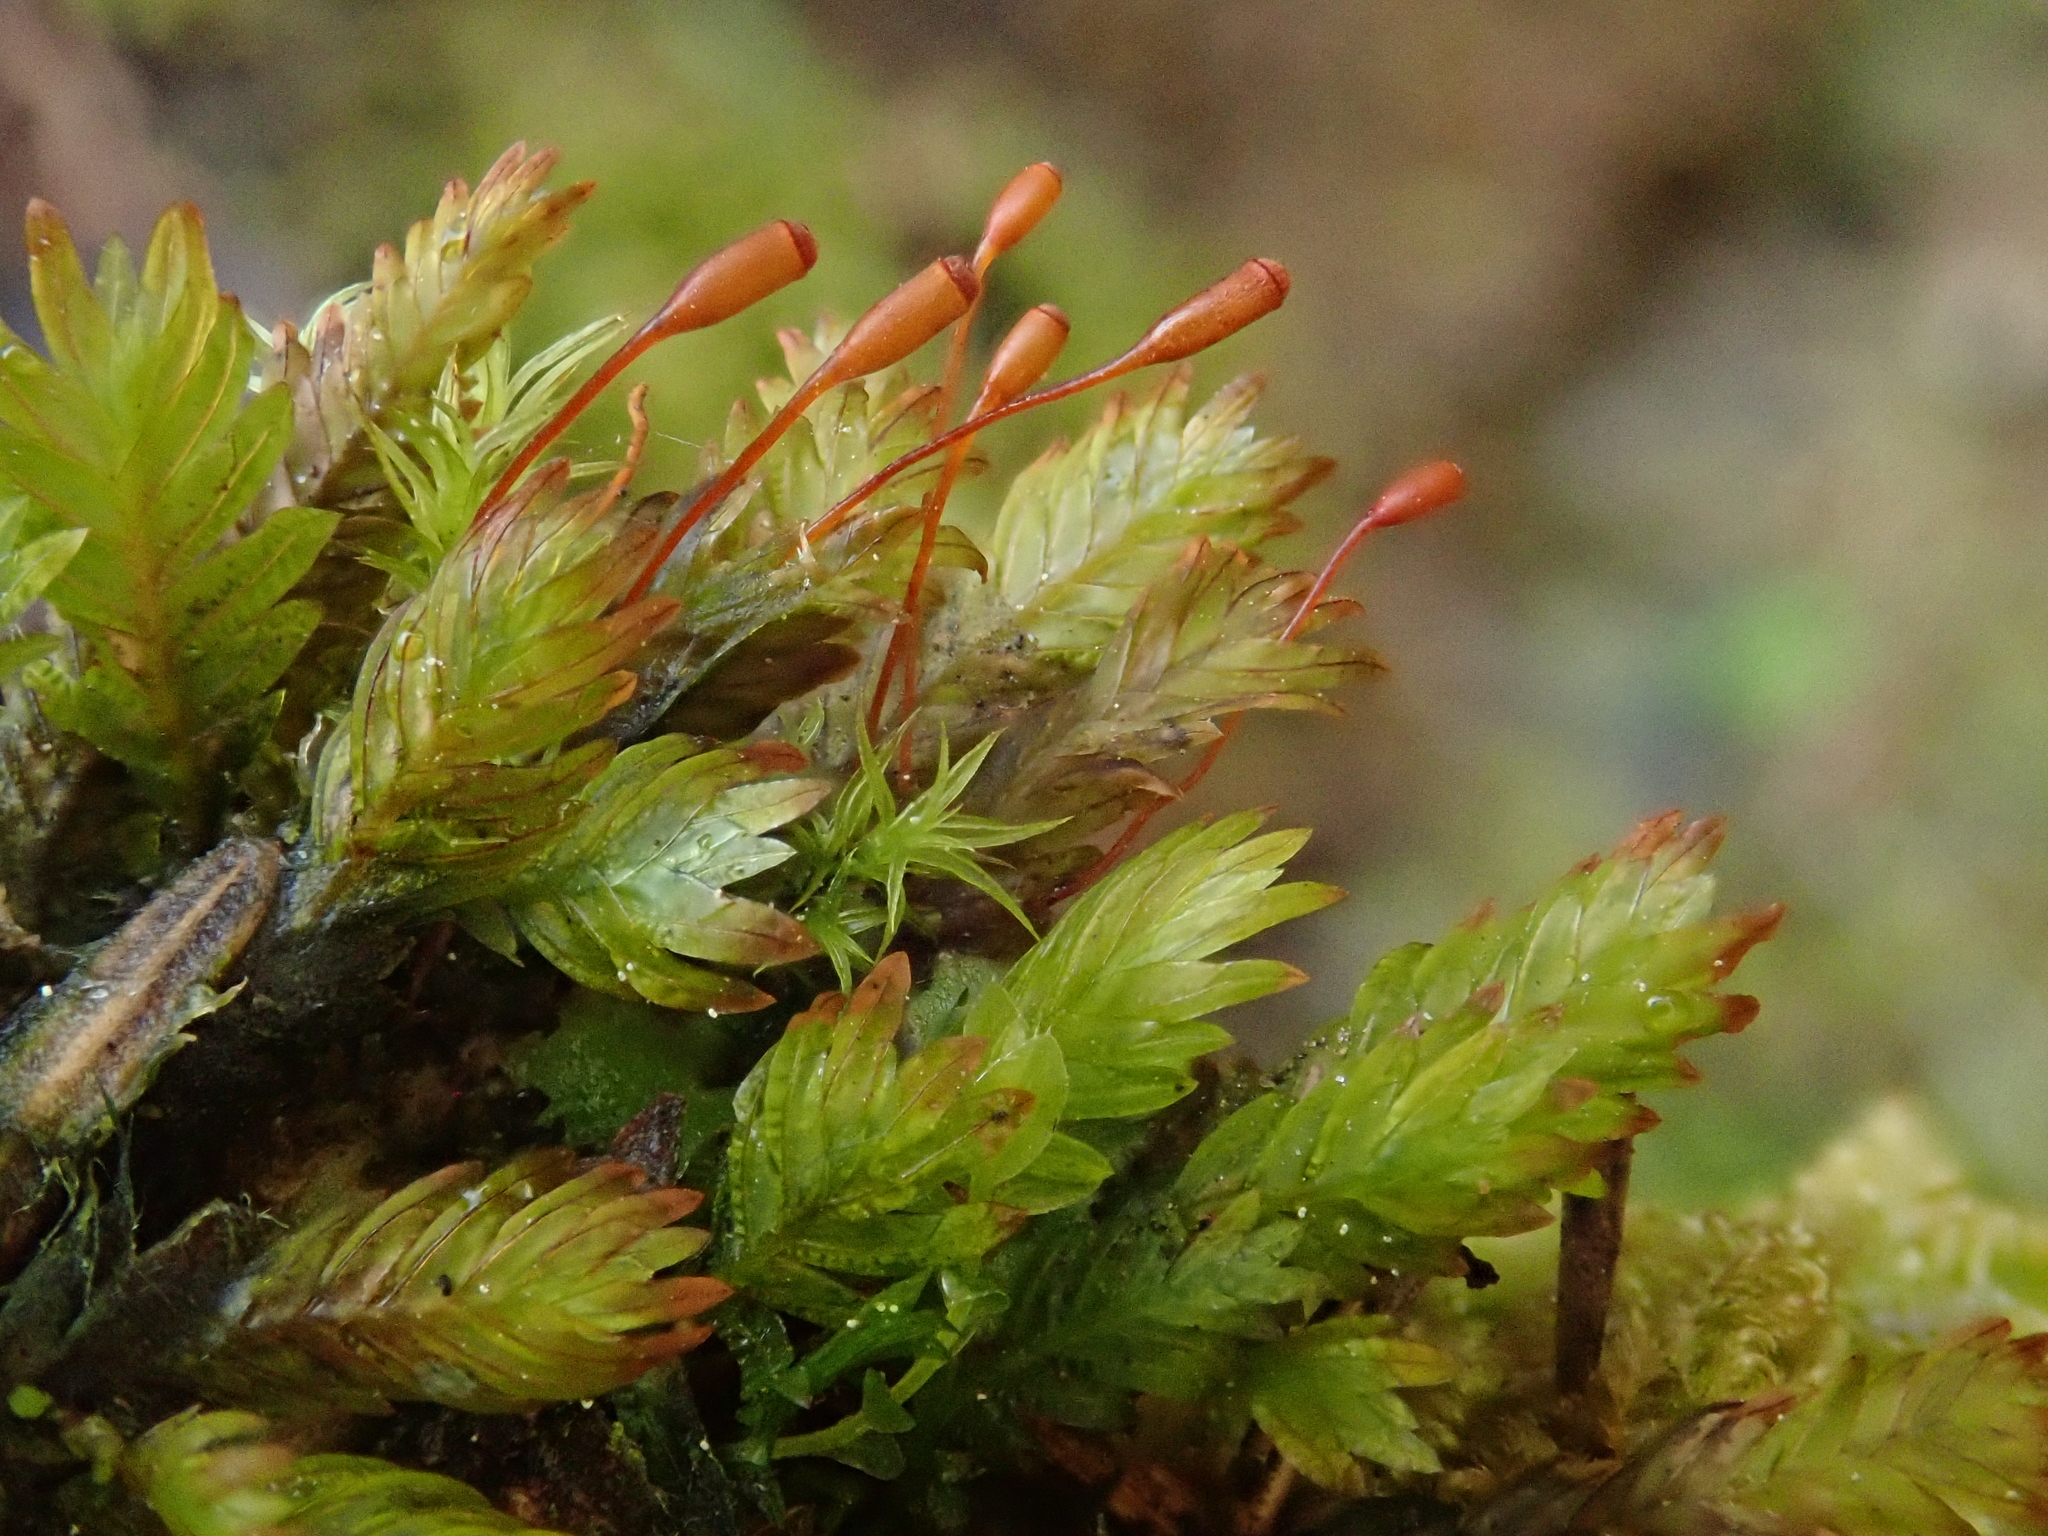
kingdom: Plantae
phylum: Bryophyta
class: Bryopsida
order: Dicranales
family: Fissidentaceae
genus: Fissidens
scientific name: Fissidens dubius
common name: Rock pocket moss
